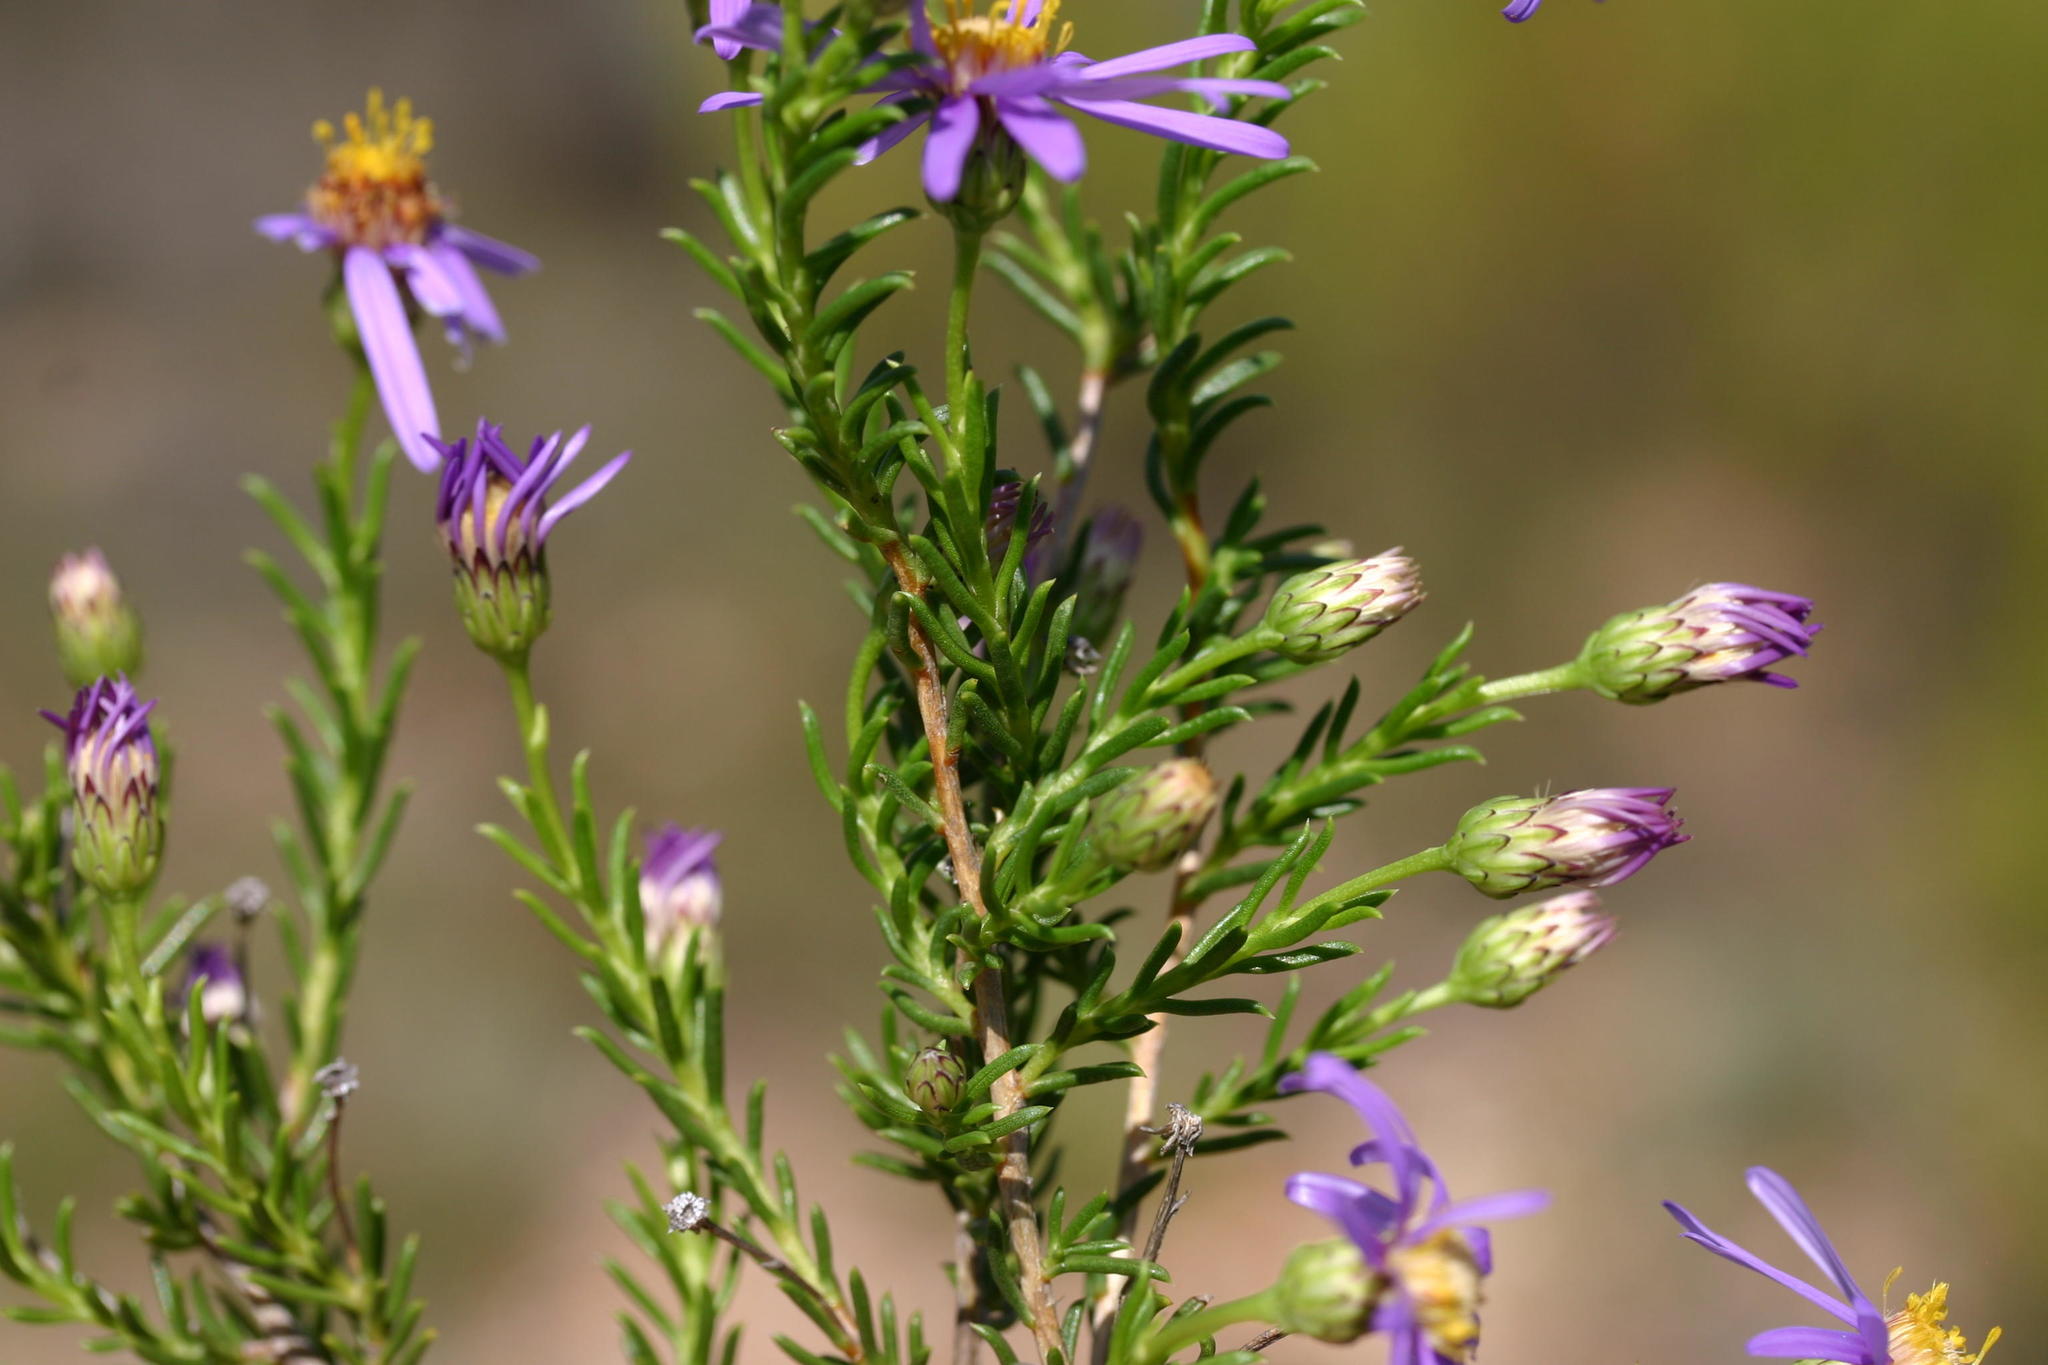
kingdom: Plantae
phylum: Tracheophyta
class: Magnoliopsida
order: Asterales
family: Asteraceae
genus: Felicia
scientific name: Felicia filifolia
